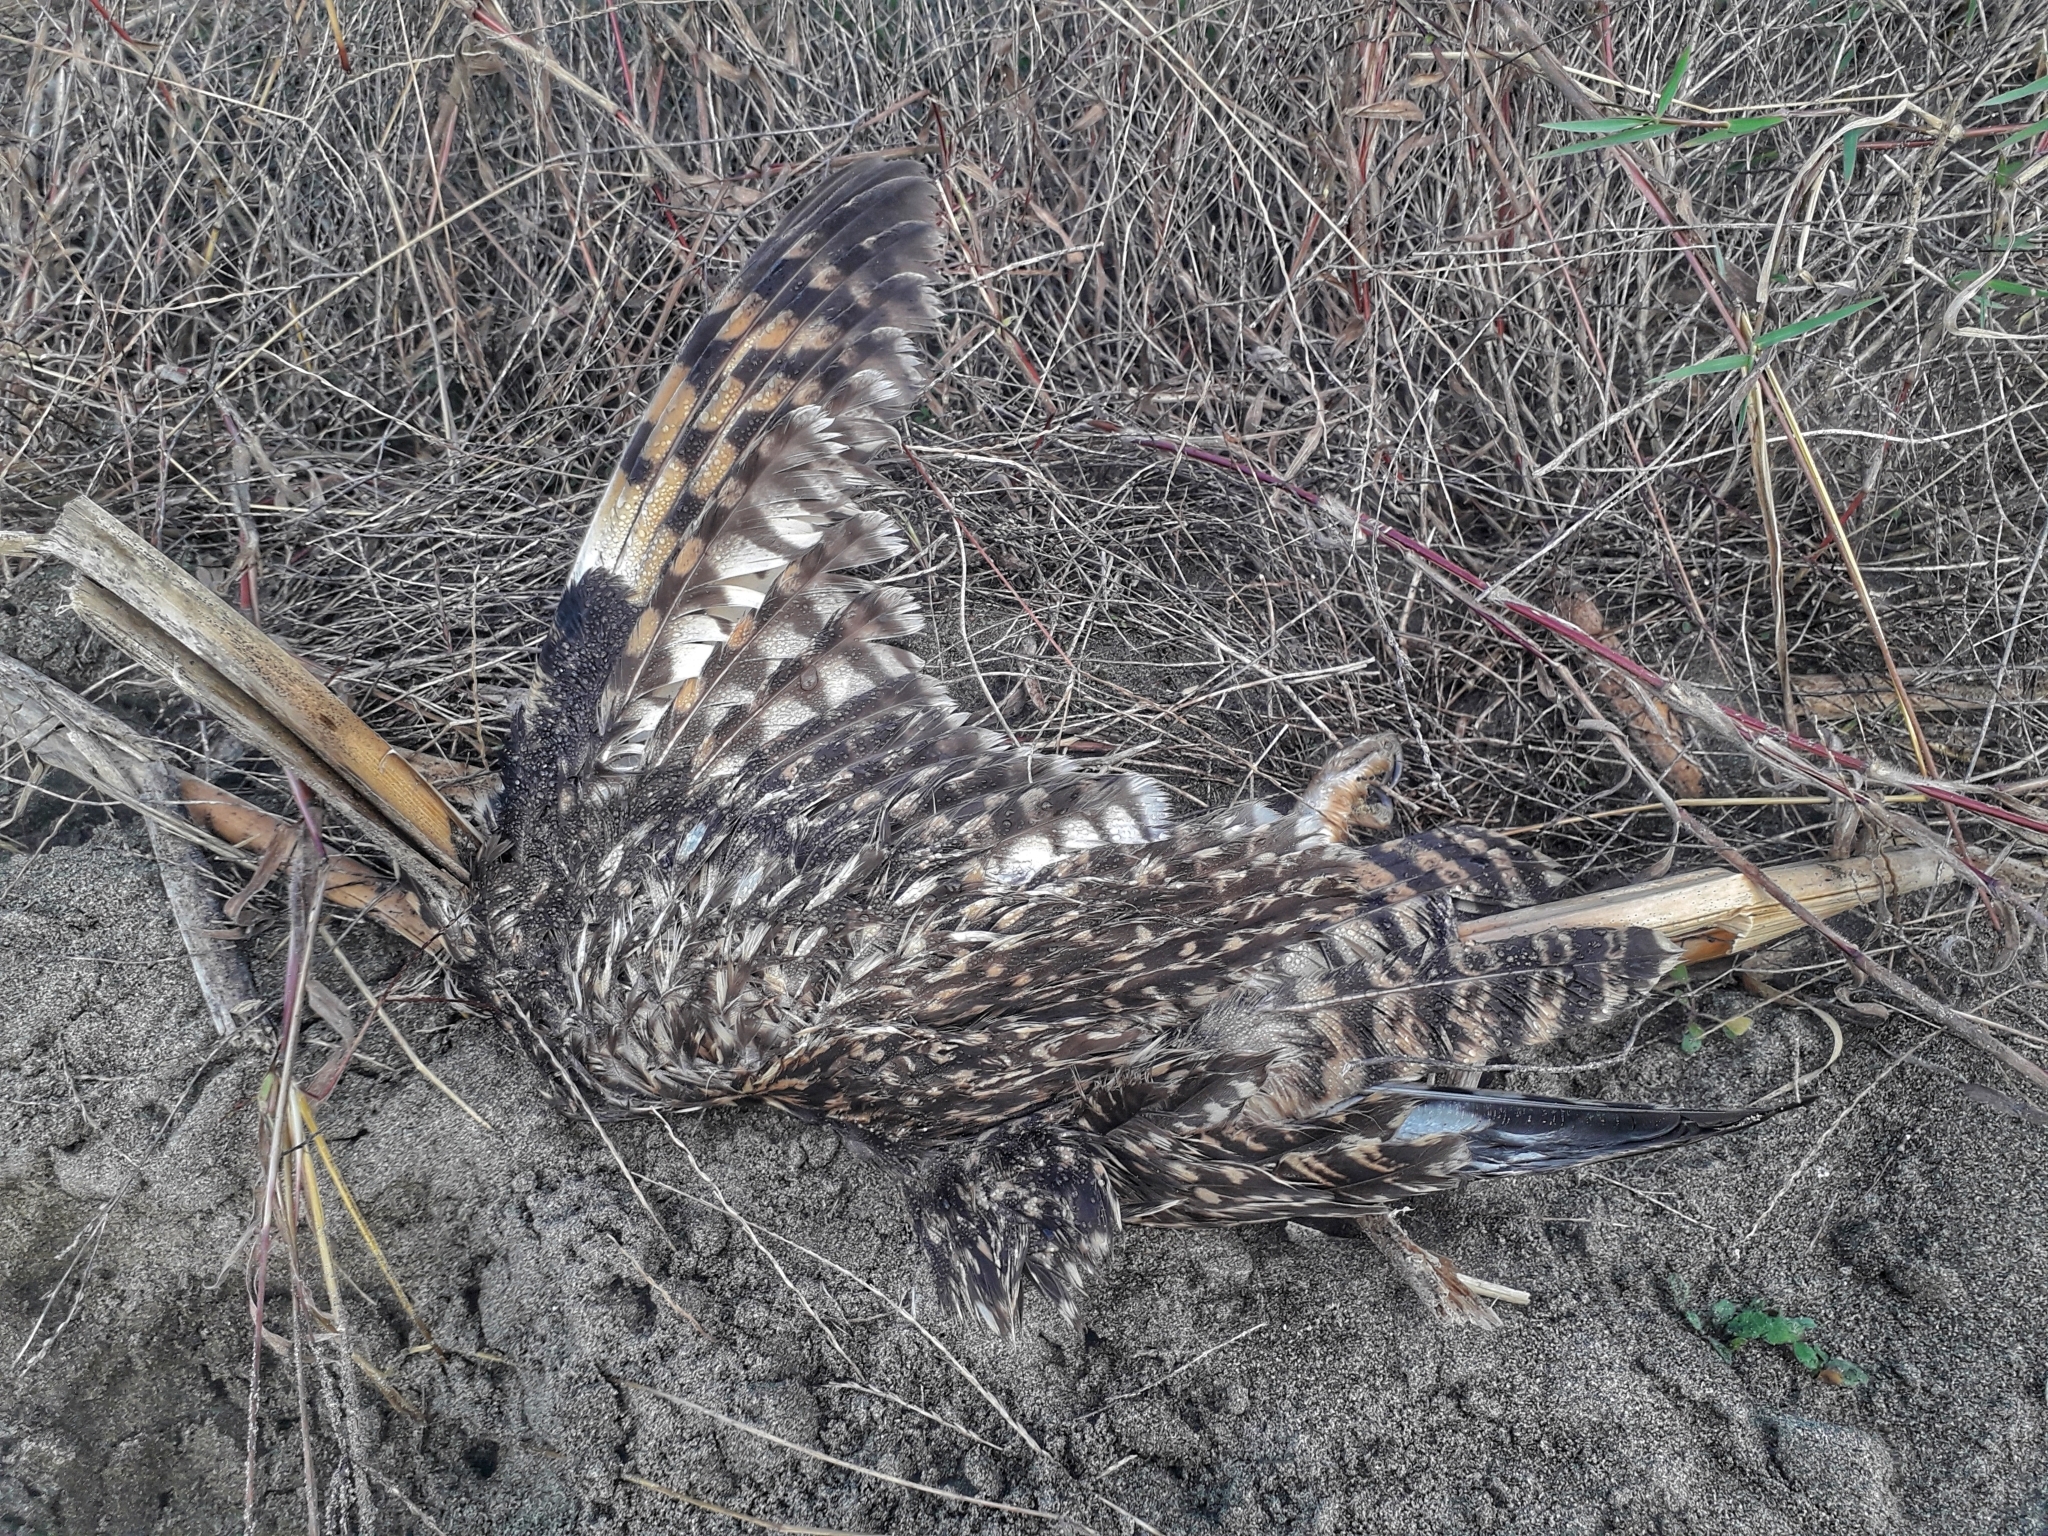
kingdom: Animalia
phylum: Chordata
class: Aves
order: Strigiformes
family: Strigidae
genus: Asio
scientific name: Asio flammeus
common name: Short-eared owl
